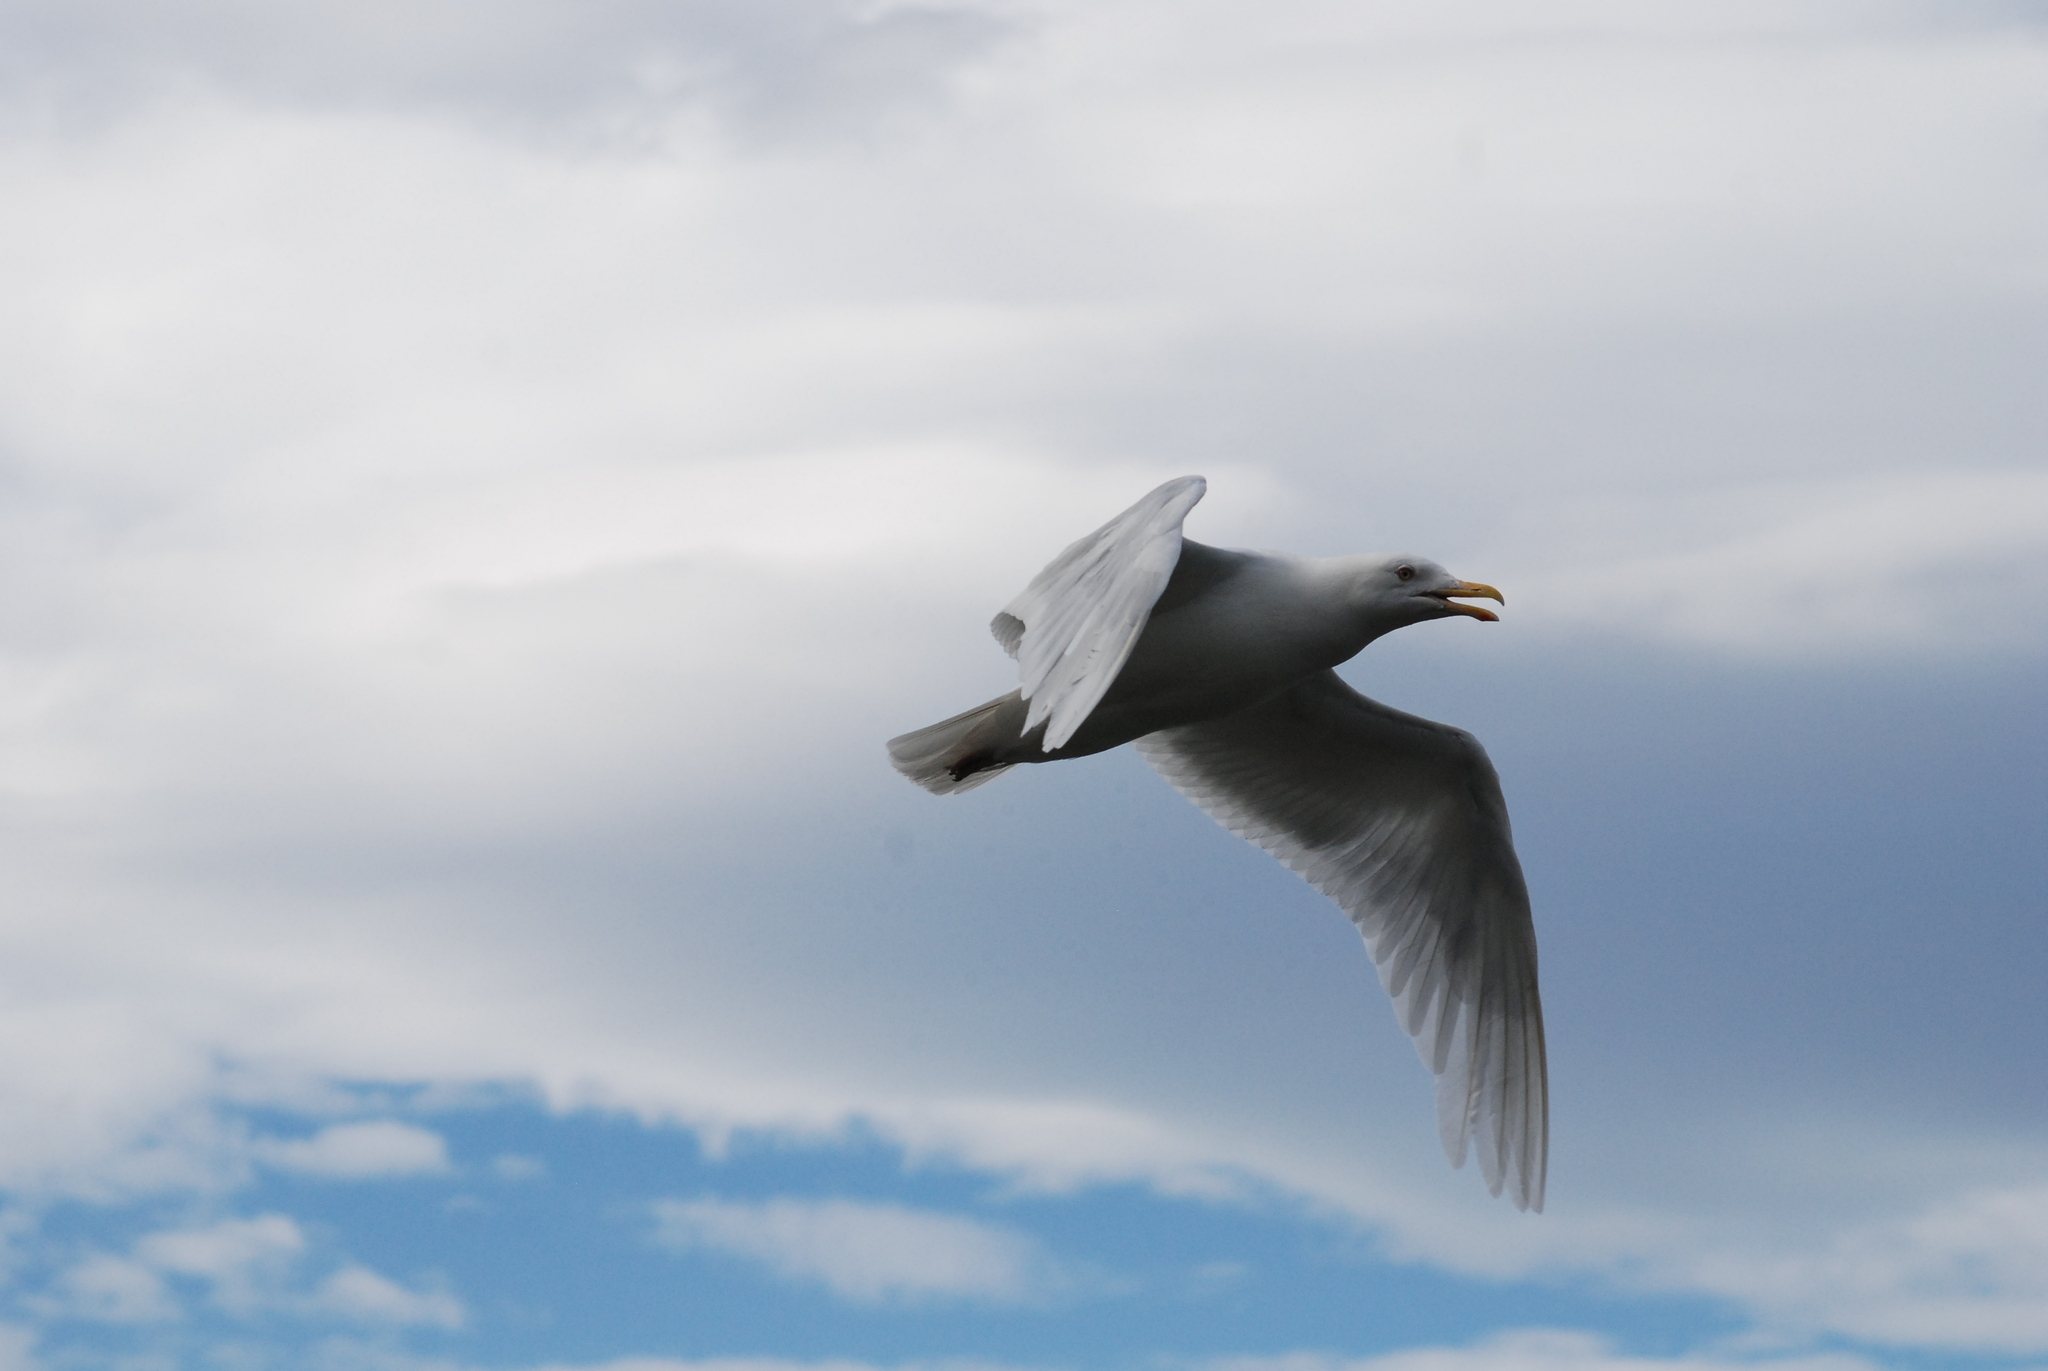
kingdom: Animalia
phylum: Chordata
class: Aves
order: Charadriiformes
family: Laridae
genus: Larus
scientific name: Larus hyperboreus
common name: Glaucous gull
